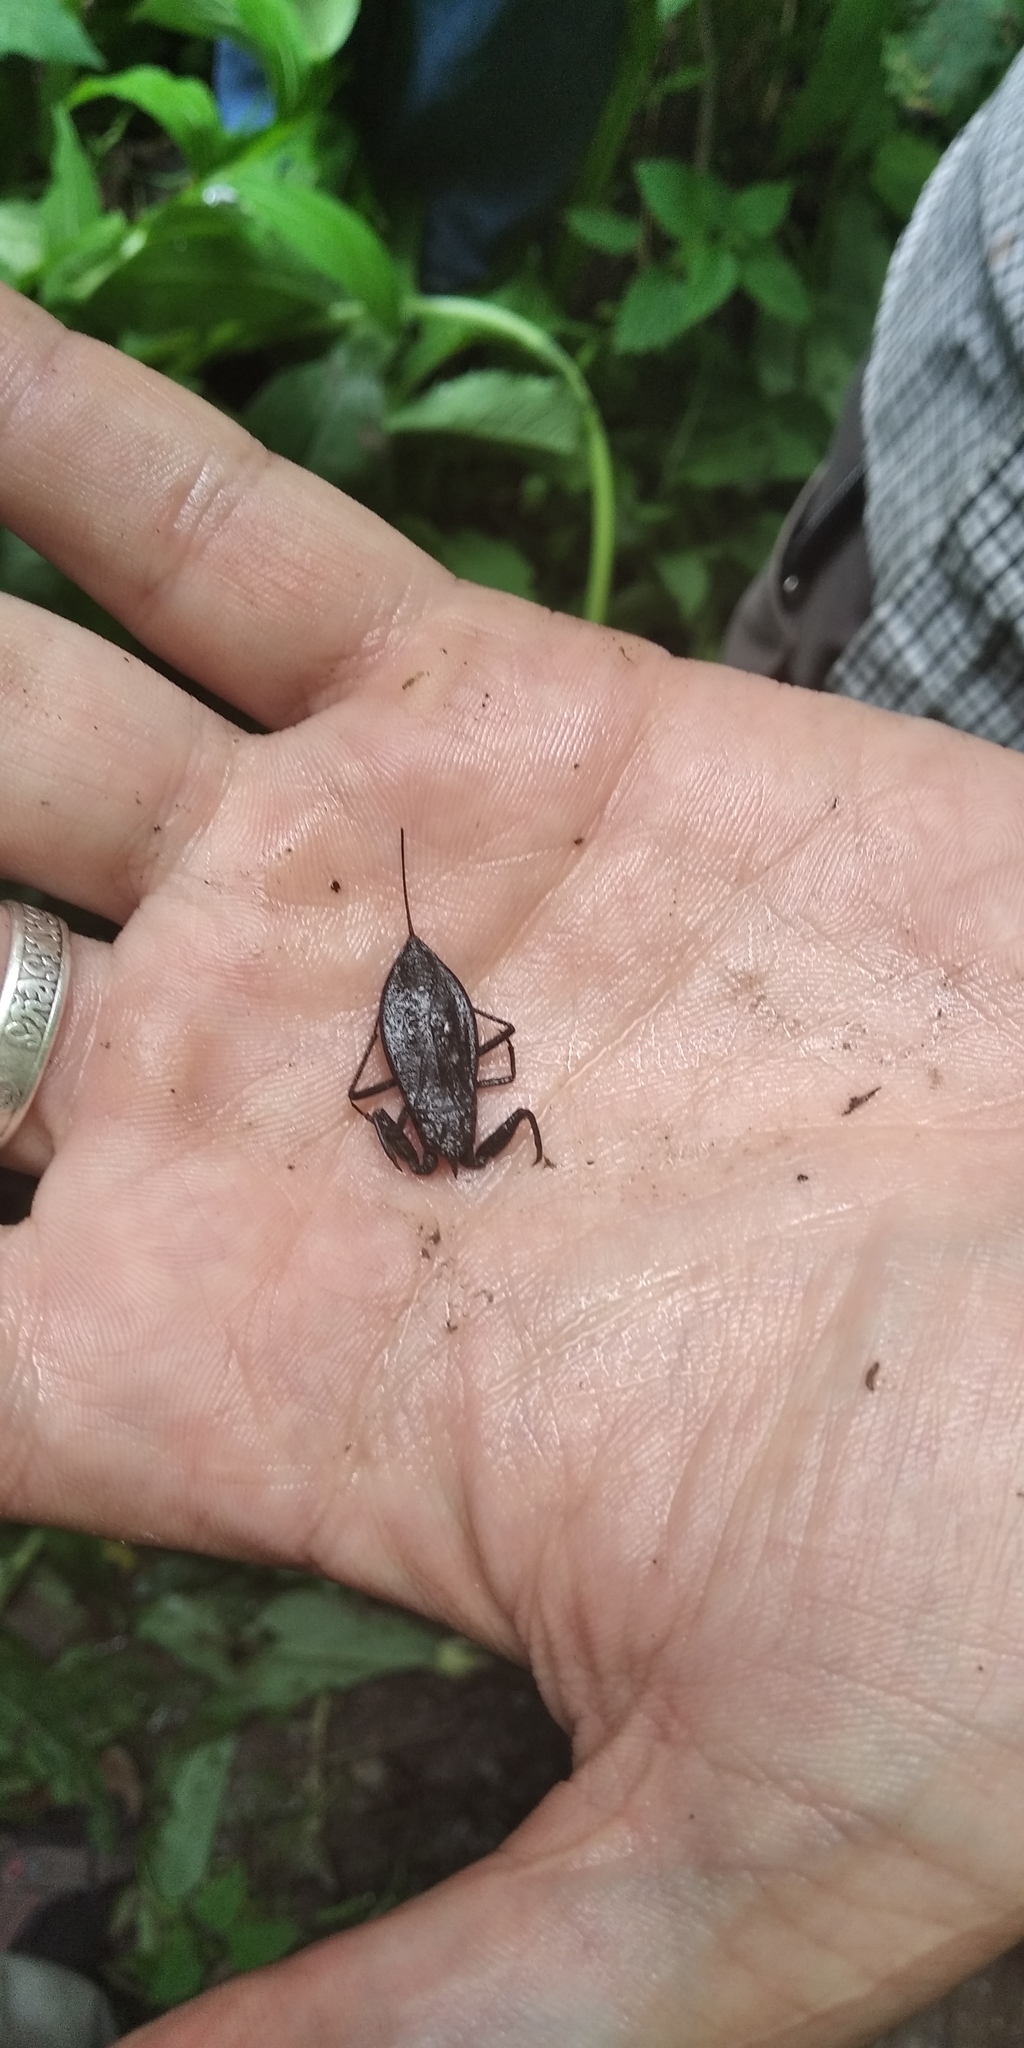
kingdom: Animalia
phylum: Arthropoda
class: Insecta
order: Hemiptera
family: Nepidae
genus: Nepa
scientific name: Nepa cinerea
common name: Water scorpion
